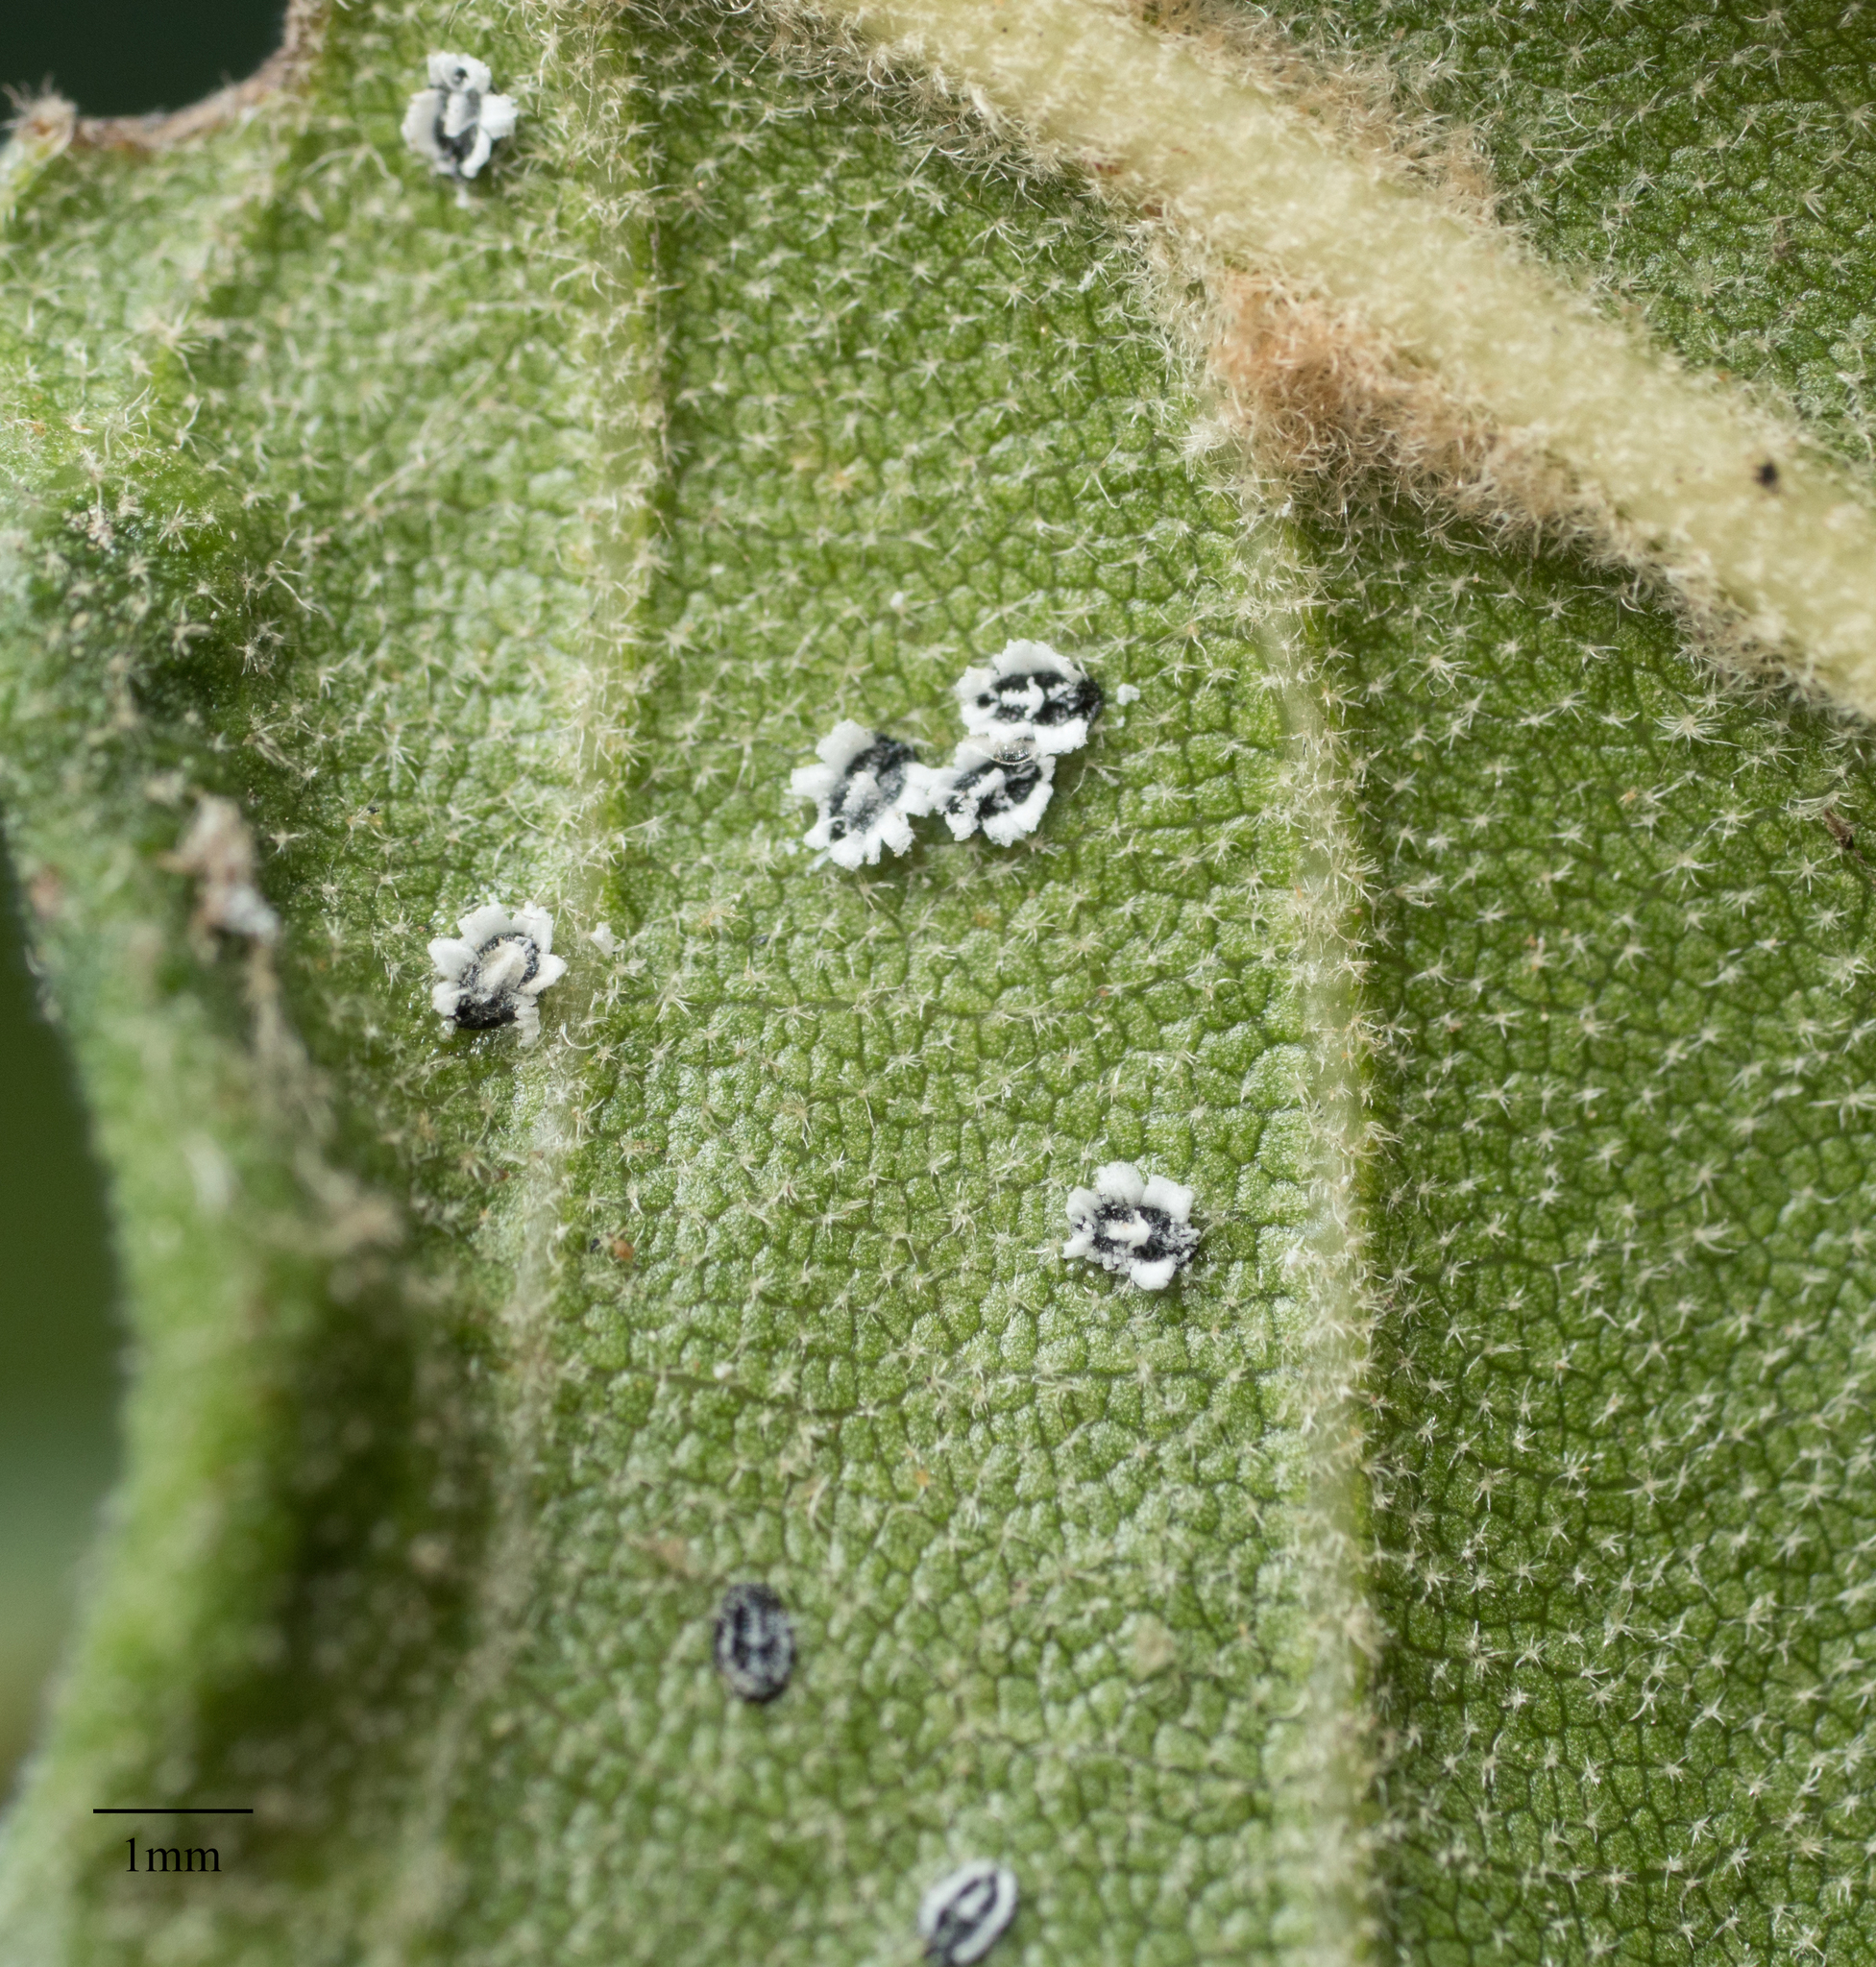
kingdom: Animalia
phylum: Arthropoda
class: Insecta
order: Hemiptera
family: Aleyrodidae
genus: Aleuroplatus
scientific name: Aleuroplatus coronata
